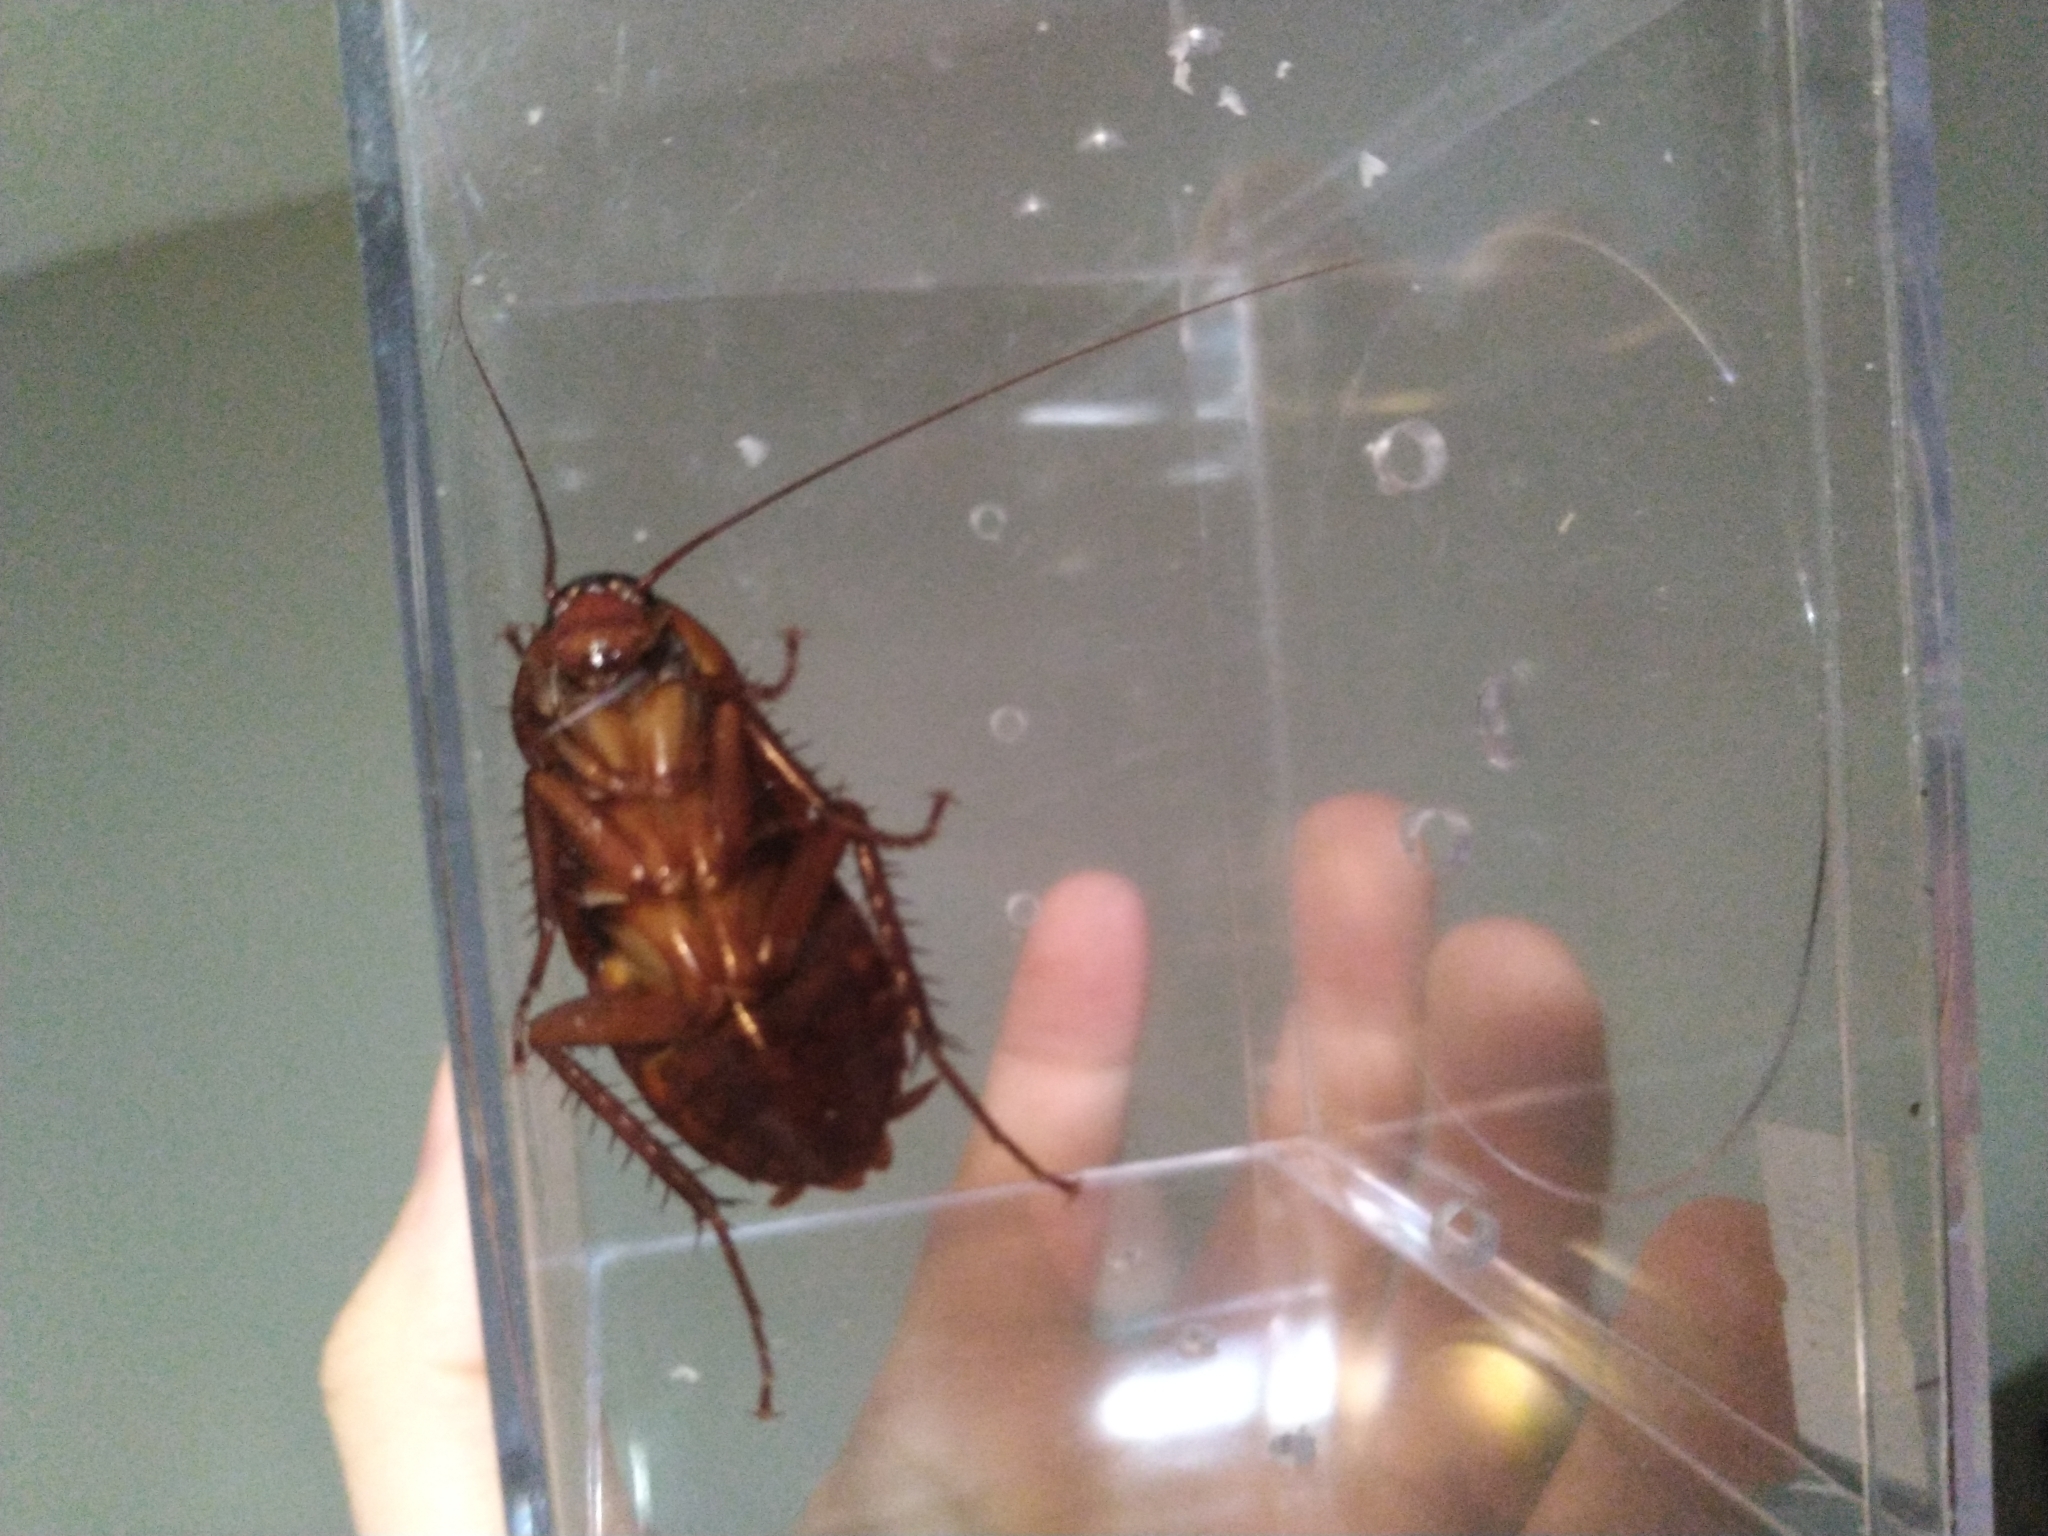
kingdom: Animalia
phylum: Arthropoda
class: Insecta
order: Blattodea
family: Blattidae
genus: Periplaneta
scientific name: Periplaneta americana
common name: American cockroach
